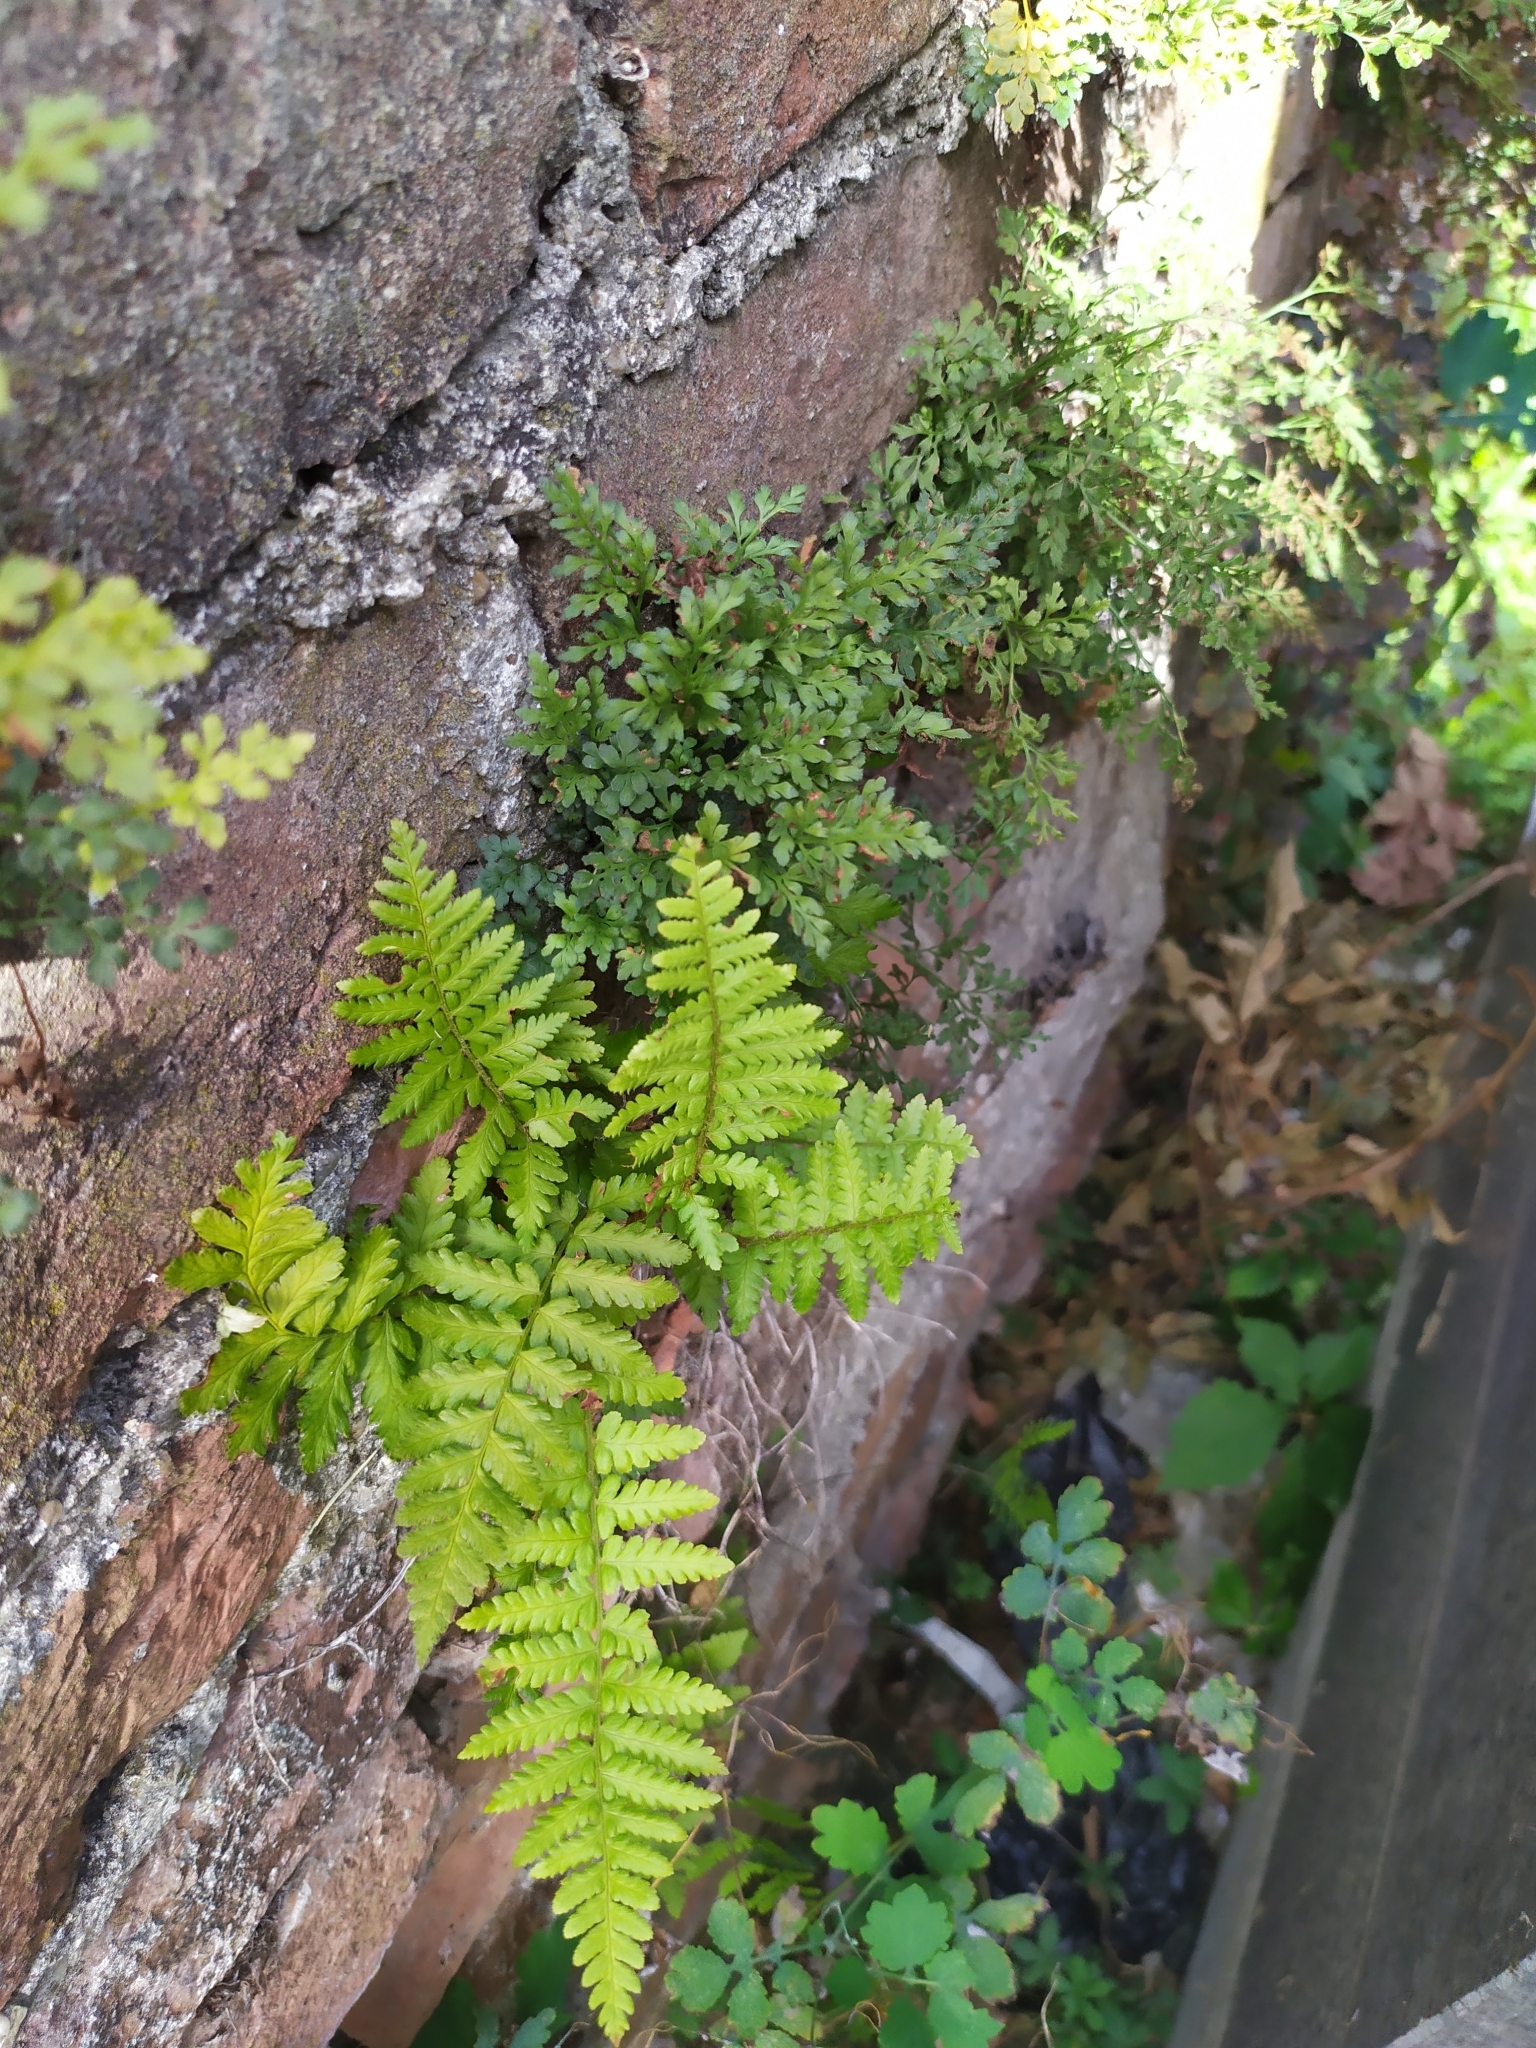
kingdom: Plantae
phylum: Tracheophyta
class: Polypodiopsida
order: Polypodiales
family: Dryopteridaceae
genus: Dryopteris
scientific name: Dryopteris filix-mas
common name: Male fern
